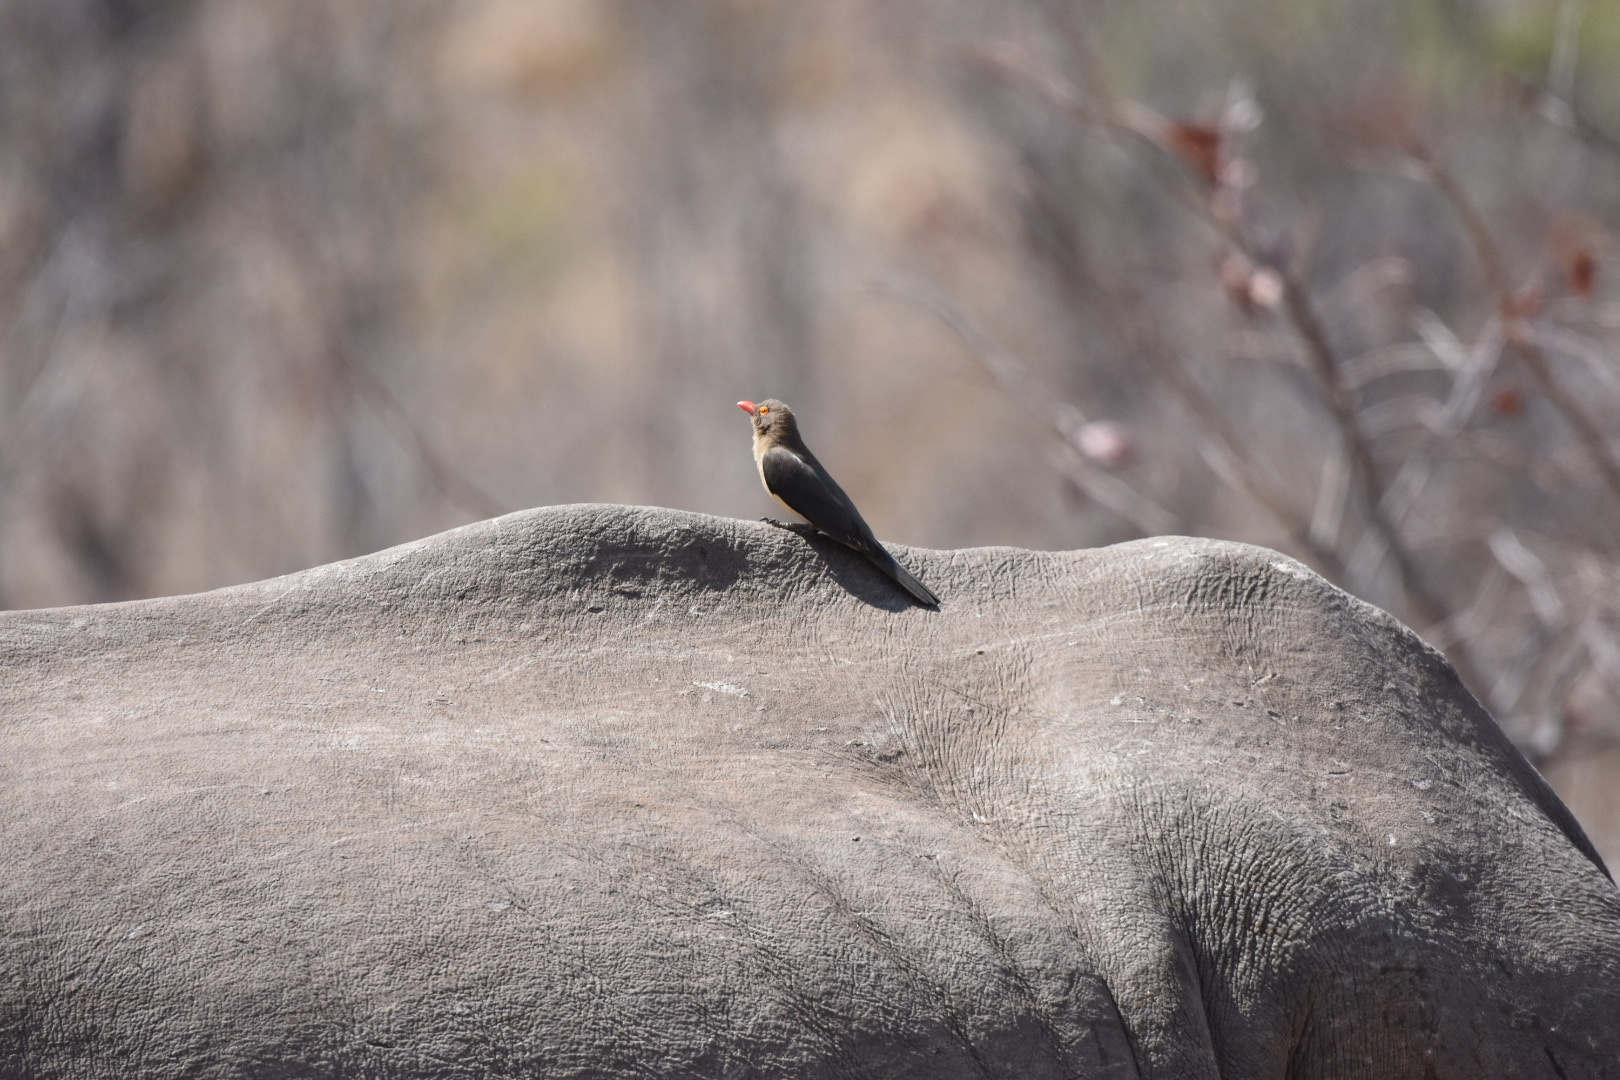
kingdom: Animalia
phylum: Chordata
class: Aves
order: Passeriformes
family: Buphagidae
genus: Buphagus
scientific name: Buphagus erythrorhynchus
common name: Red-billed oxpecker
